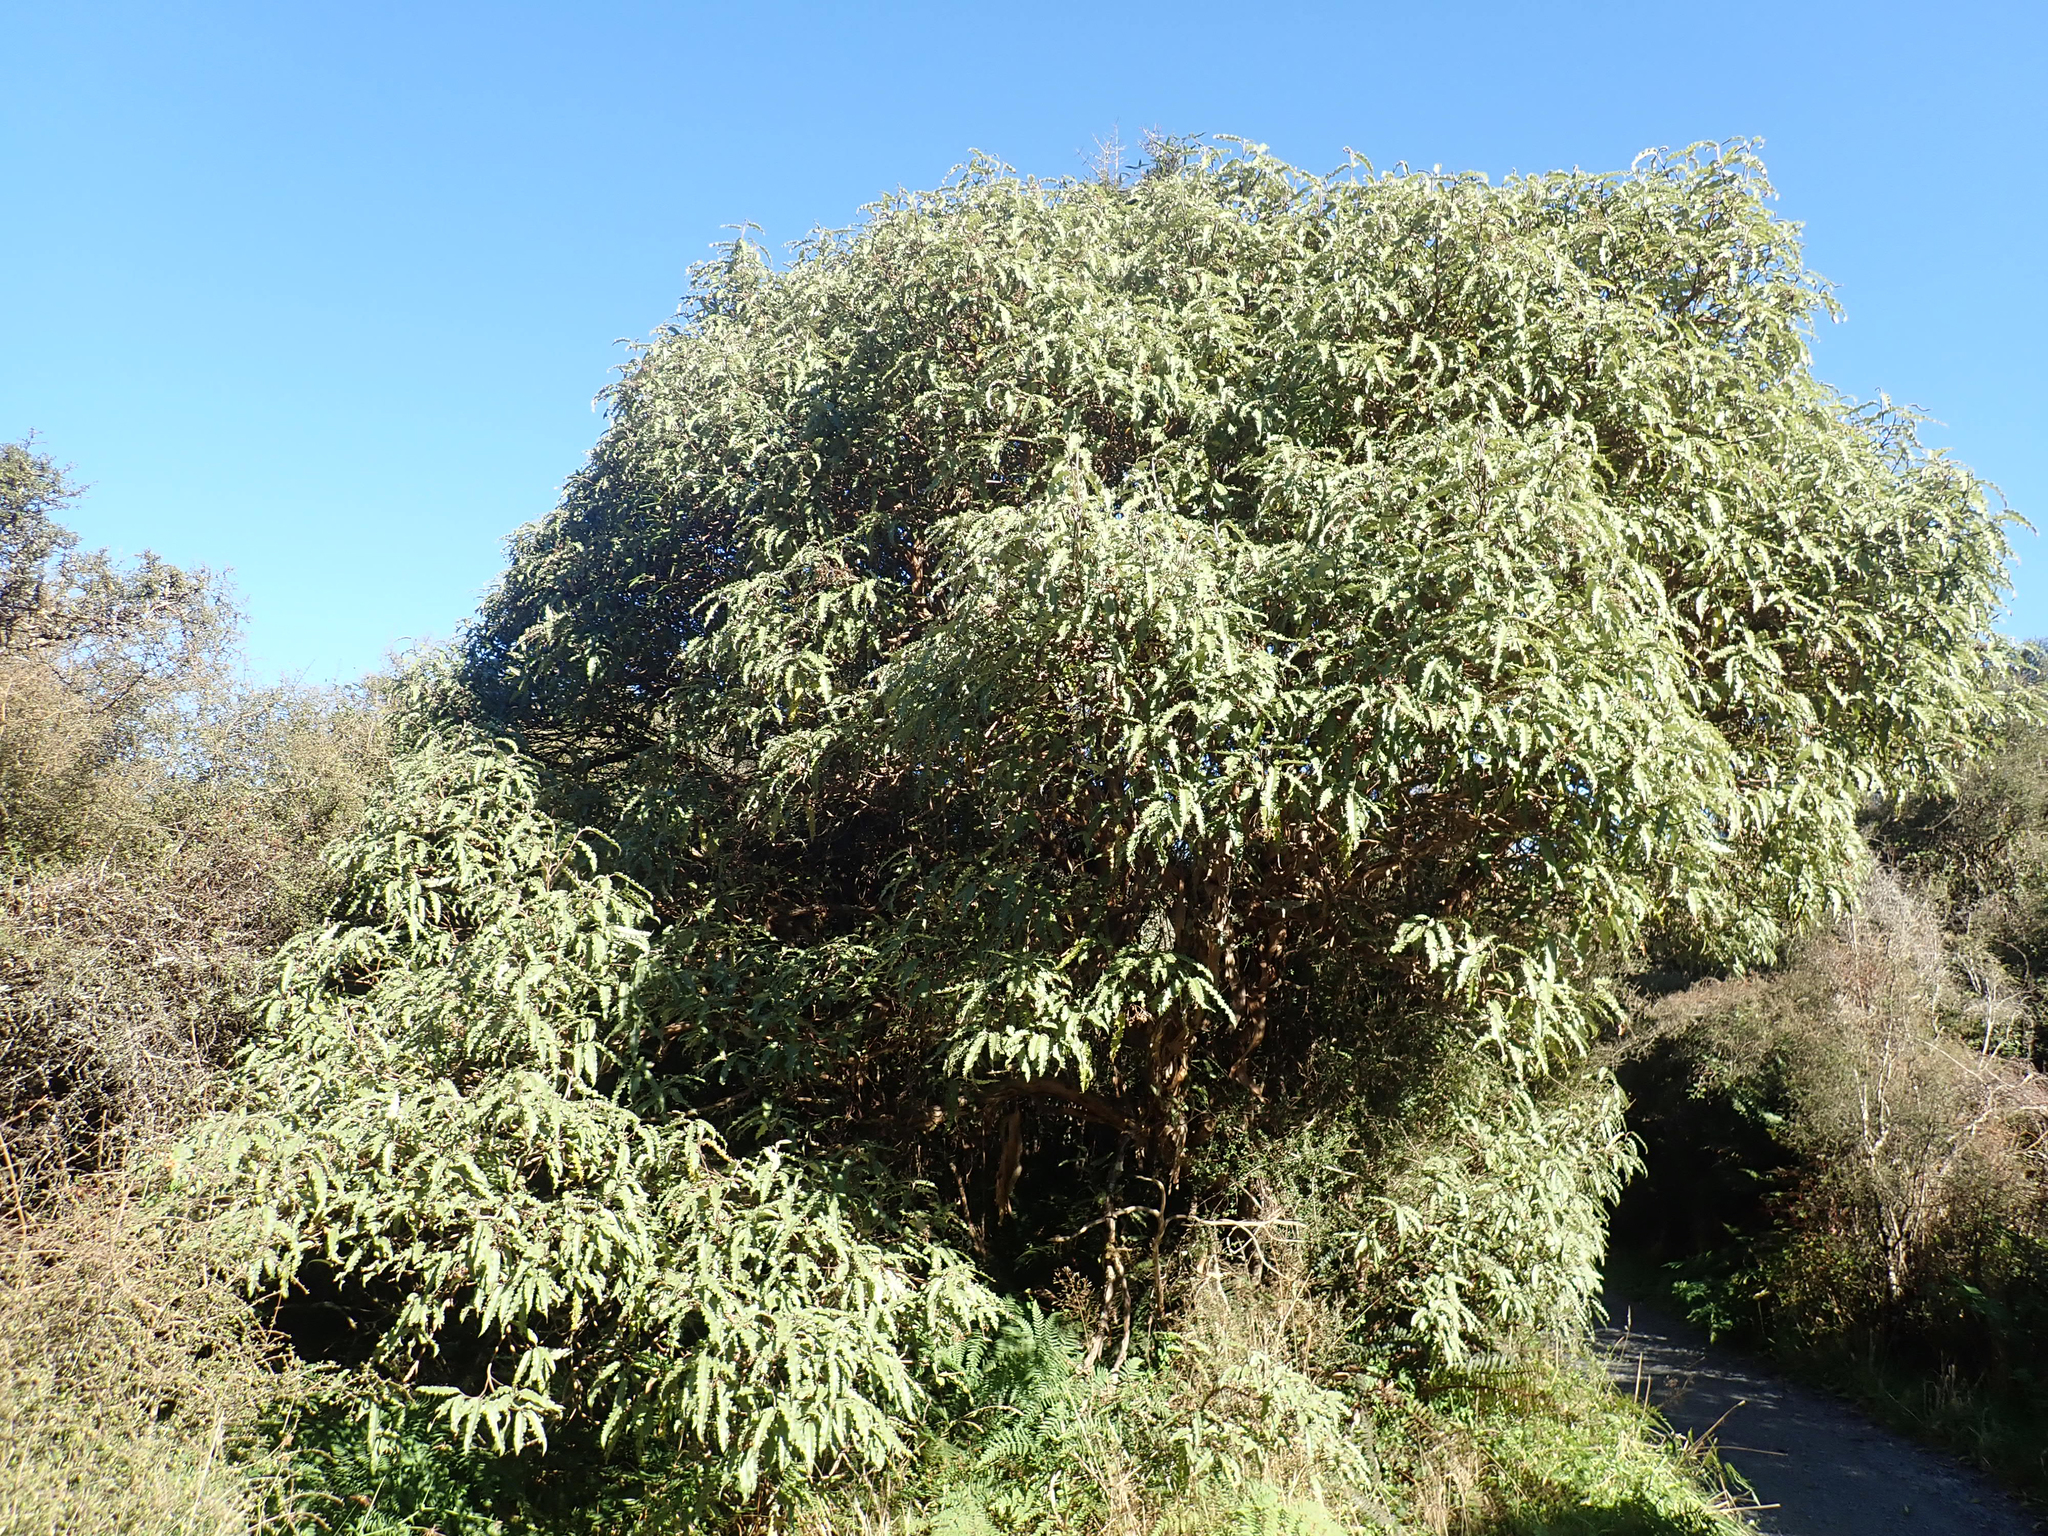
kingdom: Plantae
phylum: Tracheophyta
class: Magnoliopsida
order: Asterales
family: Asteraceae
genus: Olearia
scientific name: Olearia ilicifolia
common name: Maori-holly
